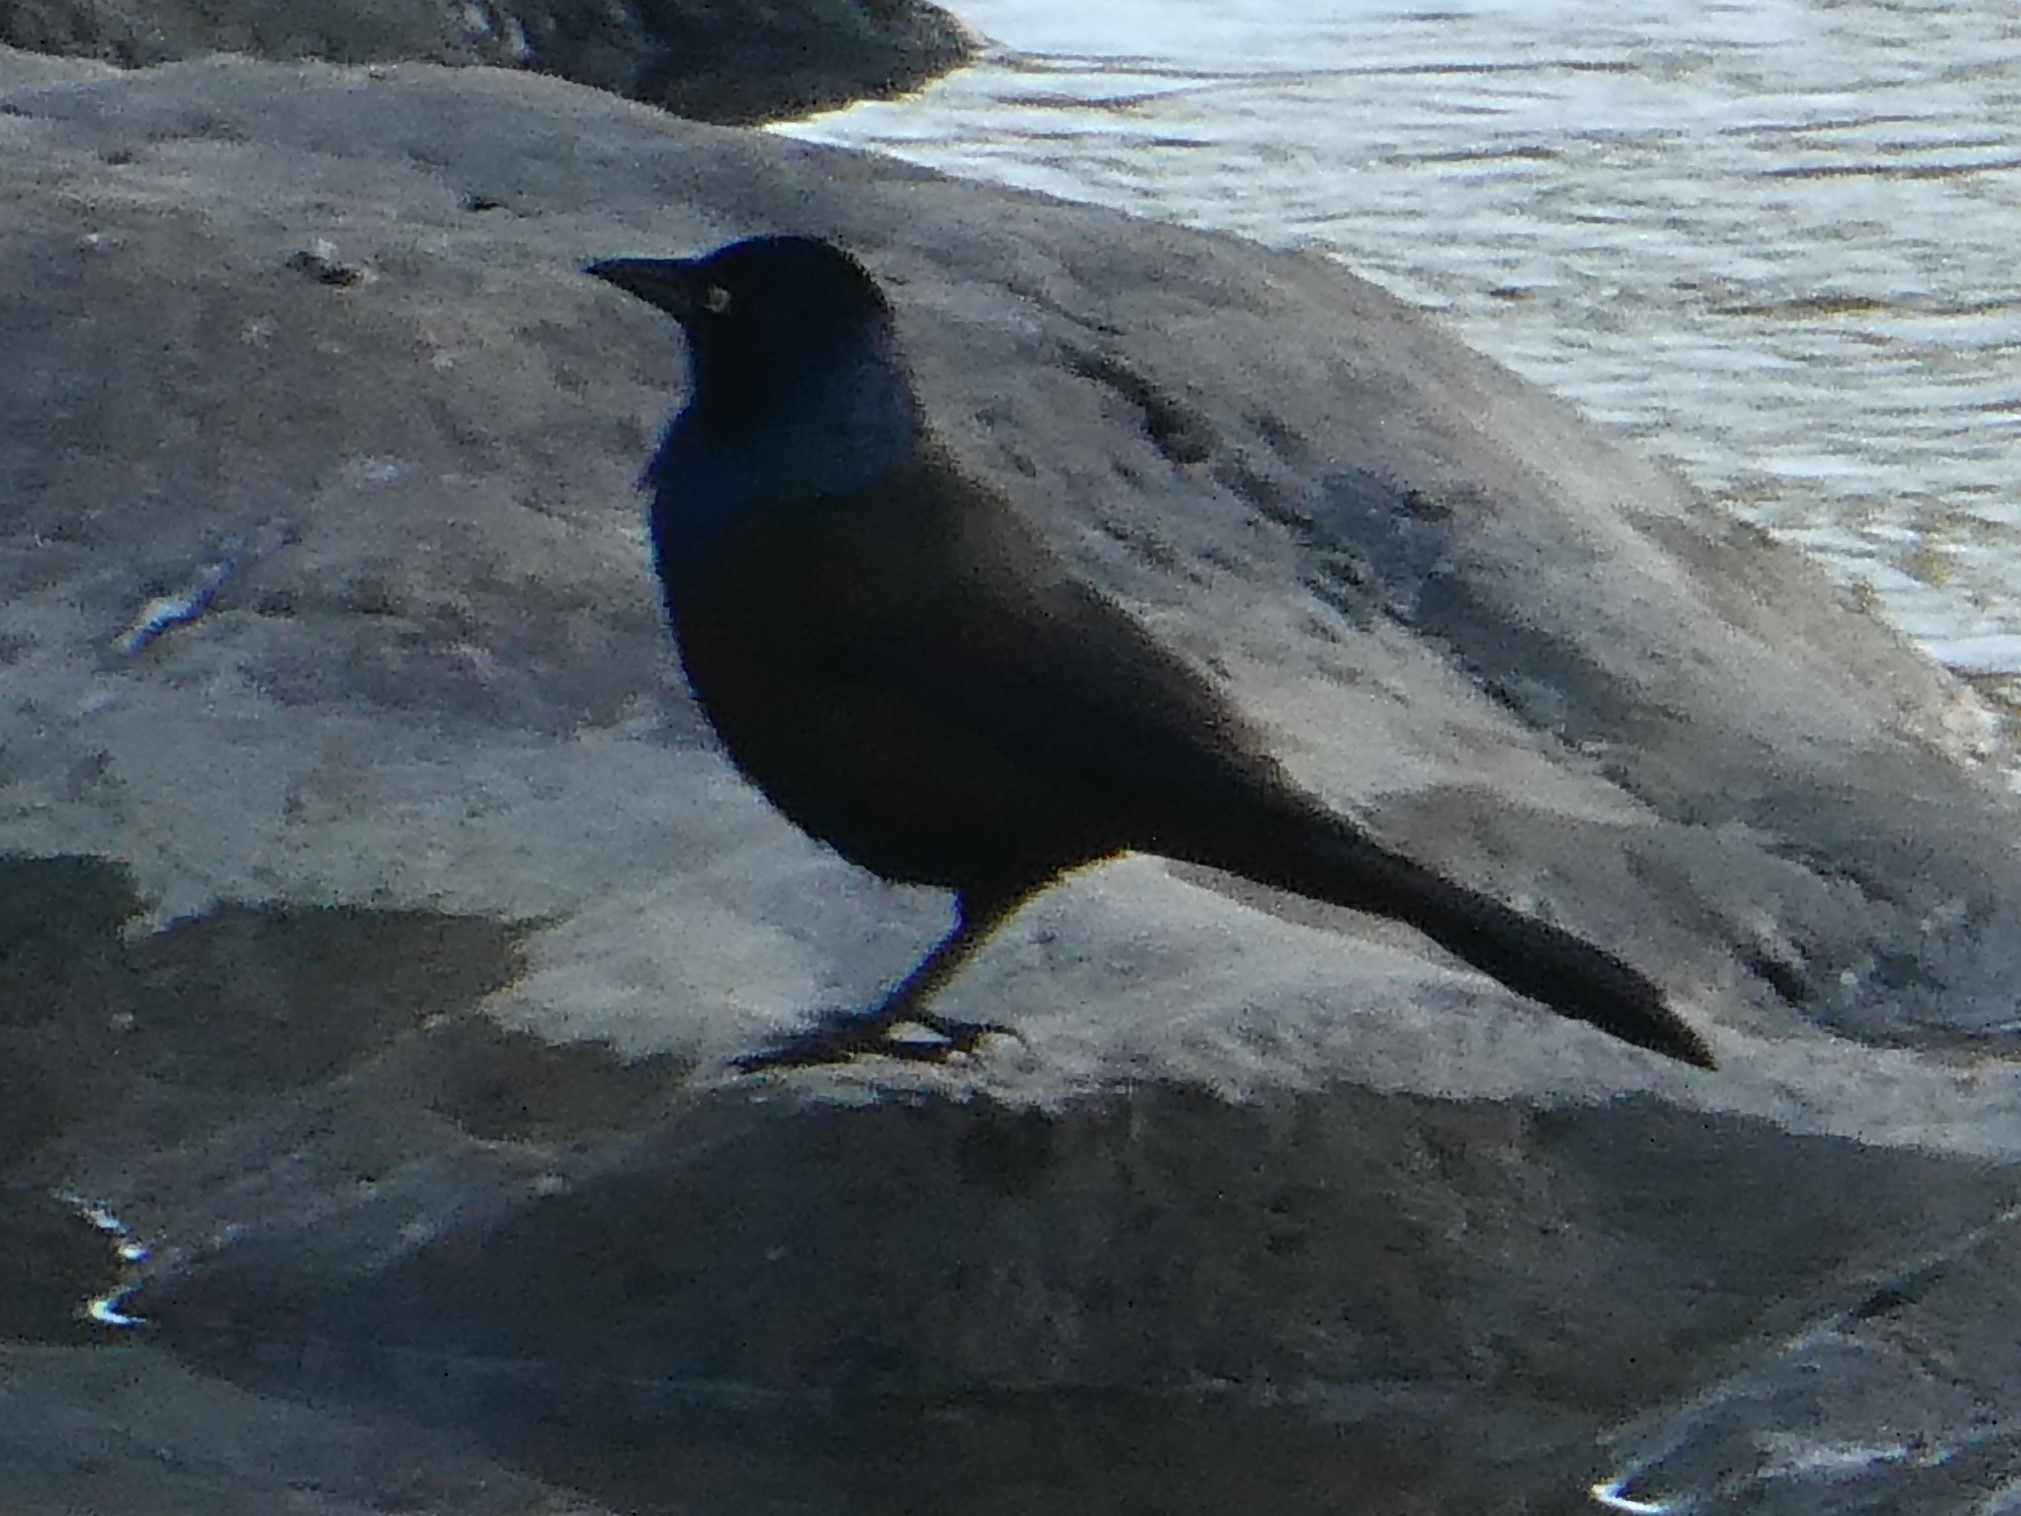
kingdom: Animalia
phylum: Chordata
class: Aves
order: Passeriformes
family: Icteridae
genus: Quiscalus
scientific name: Quiscalus quiscula
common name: Common grackle
